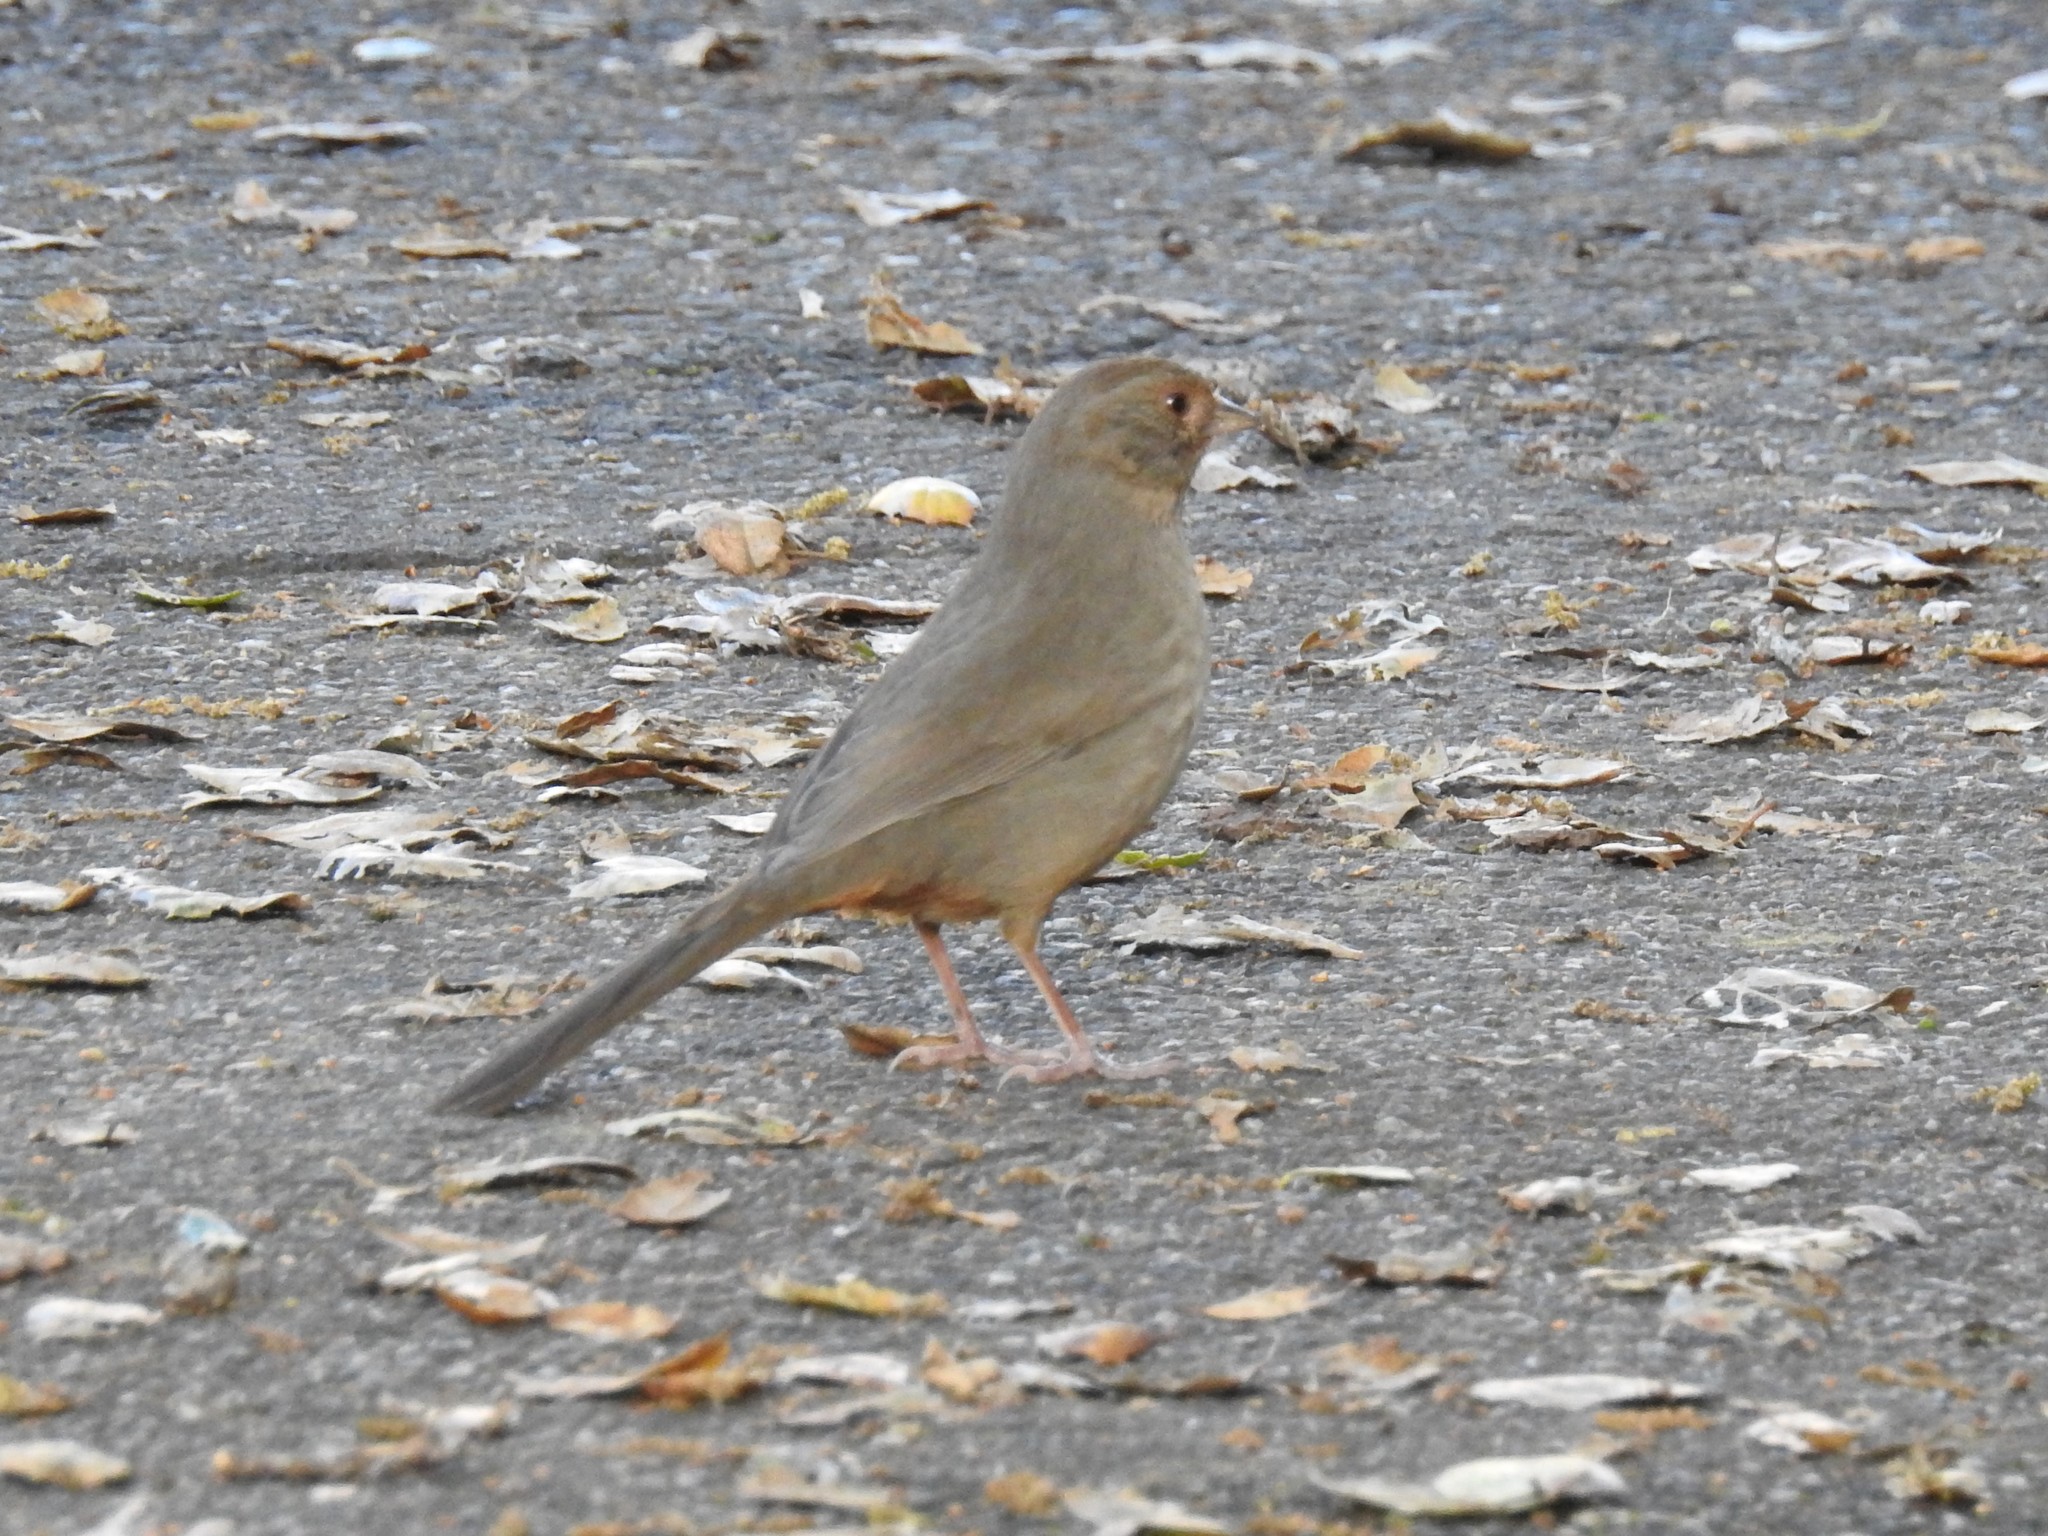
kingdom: Animalia
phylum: Chordata
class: Aves
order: Passeriformes
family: Passerellidae
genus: Melozone
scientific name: Melozone crissalis
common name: California towhee
